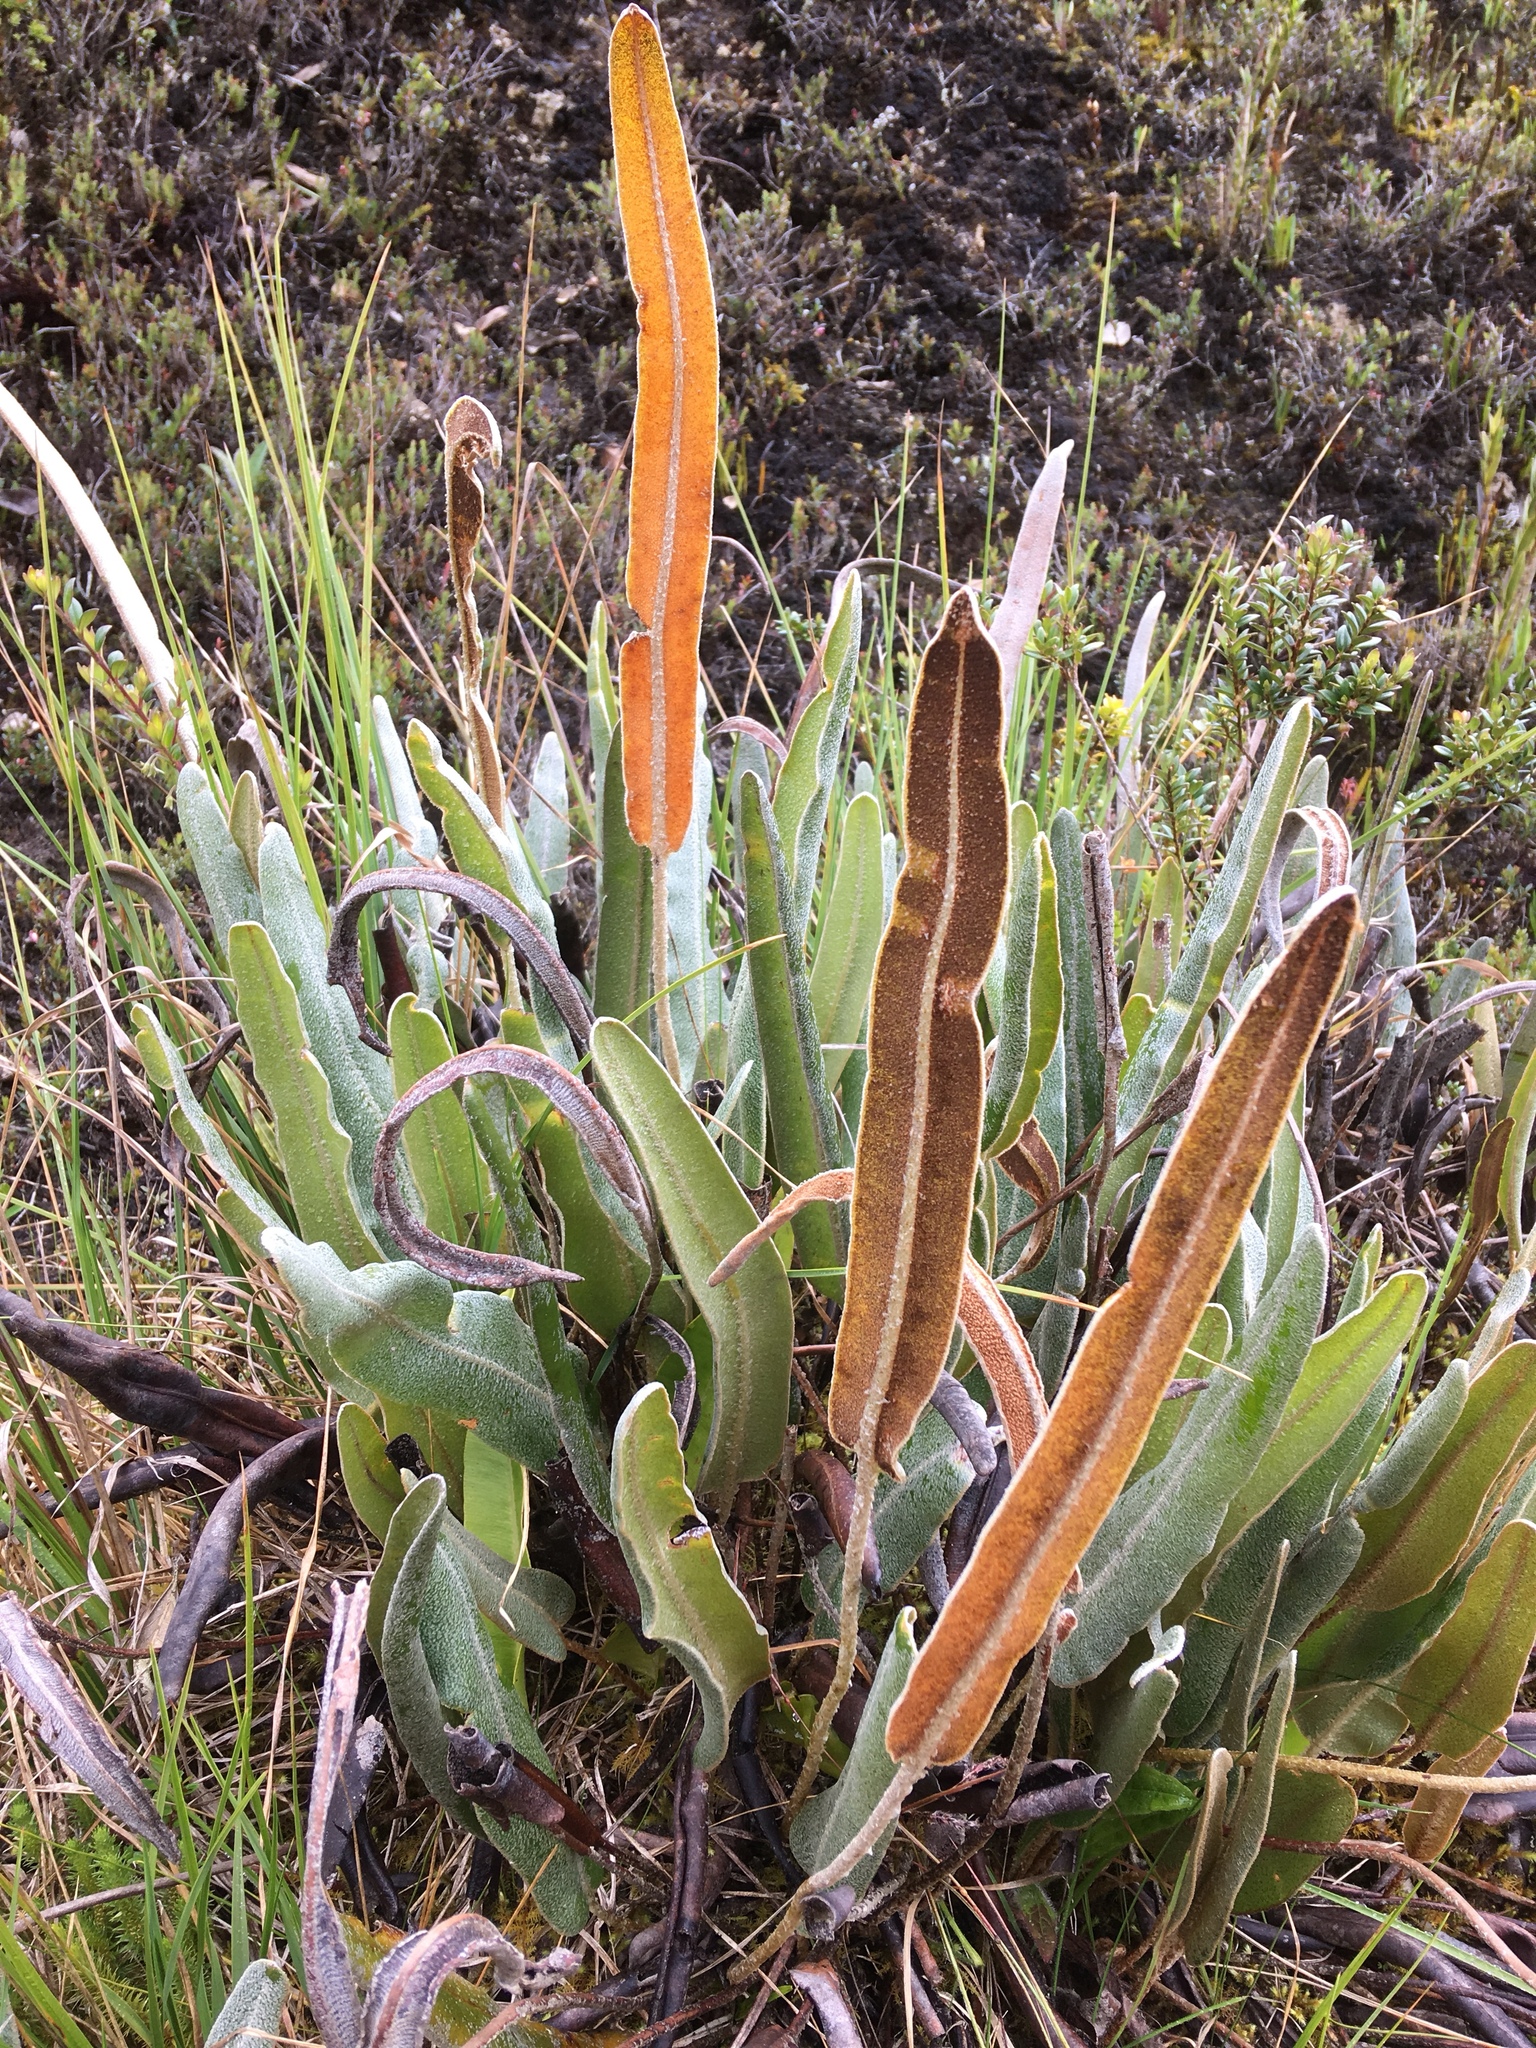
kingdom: Plantae
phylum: Tracheophyta
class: Polypodiopsida
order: Polypodiales
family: Dryopteridaceae
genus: Elaphoglossum
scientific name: Elaphoglossum engelii
